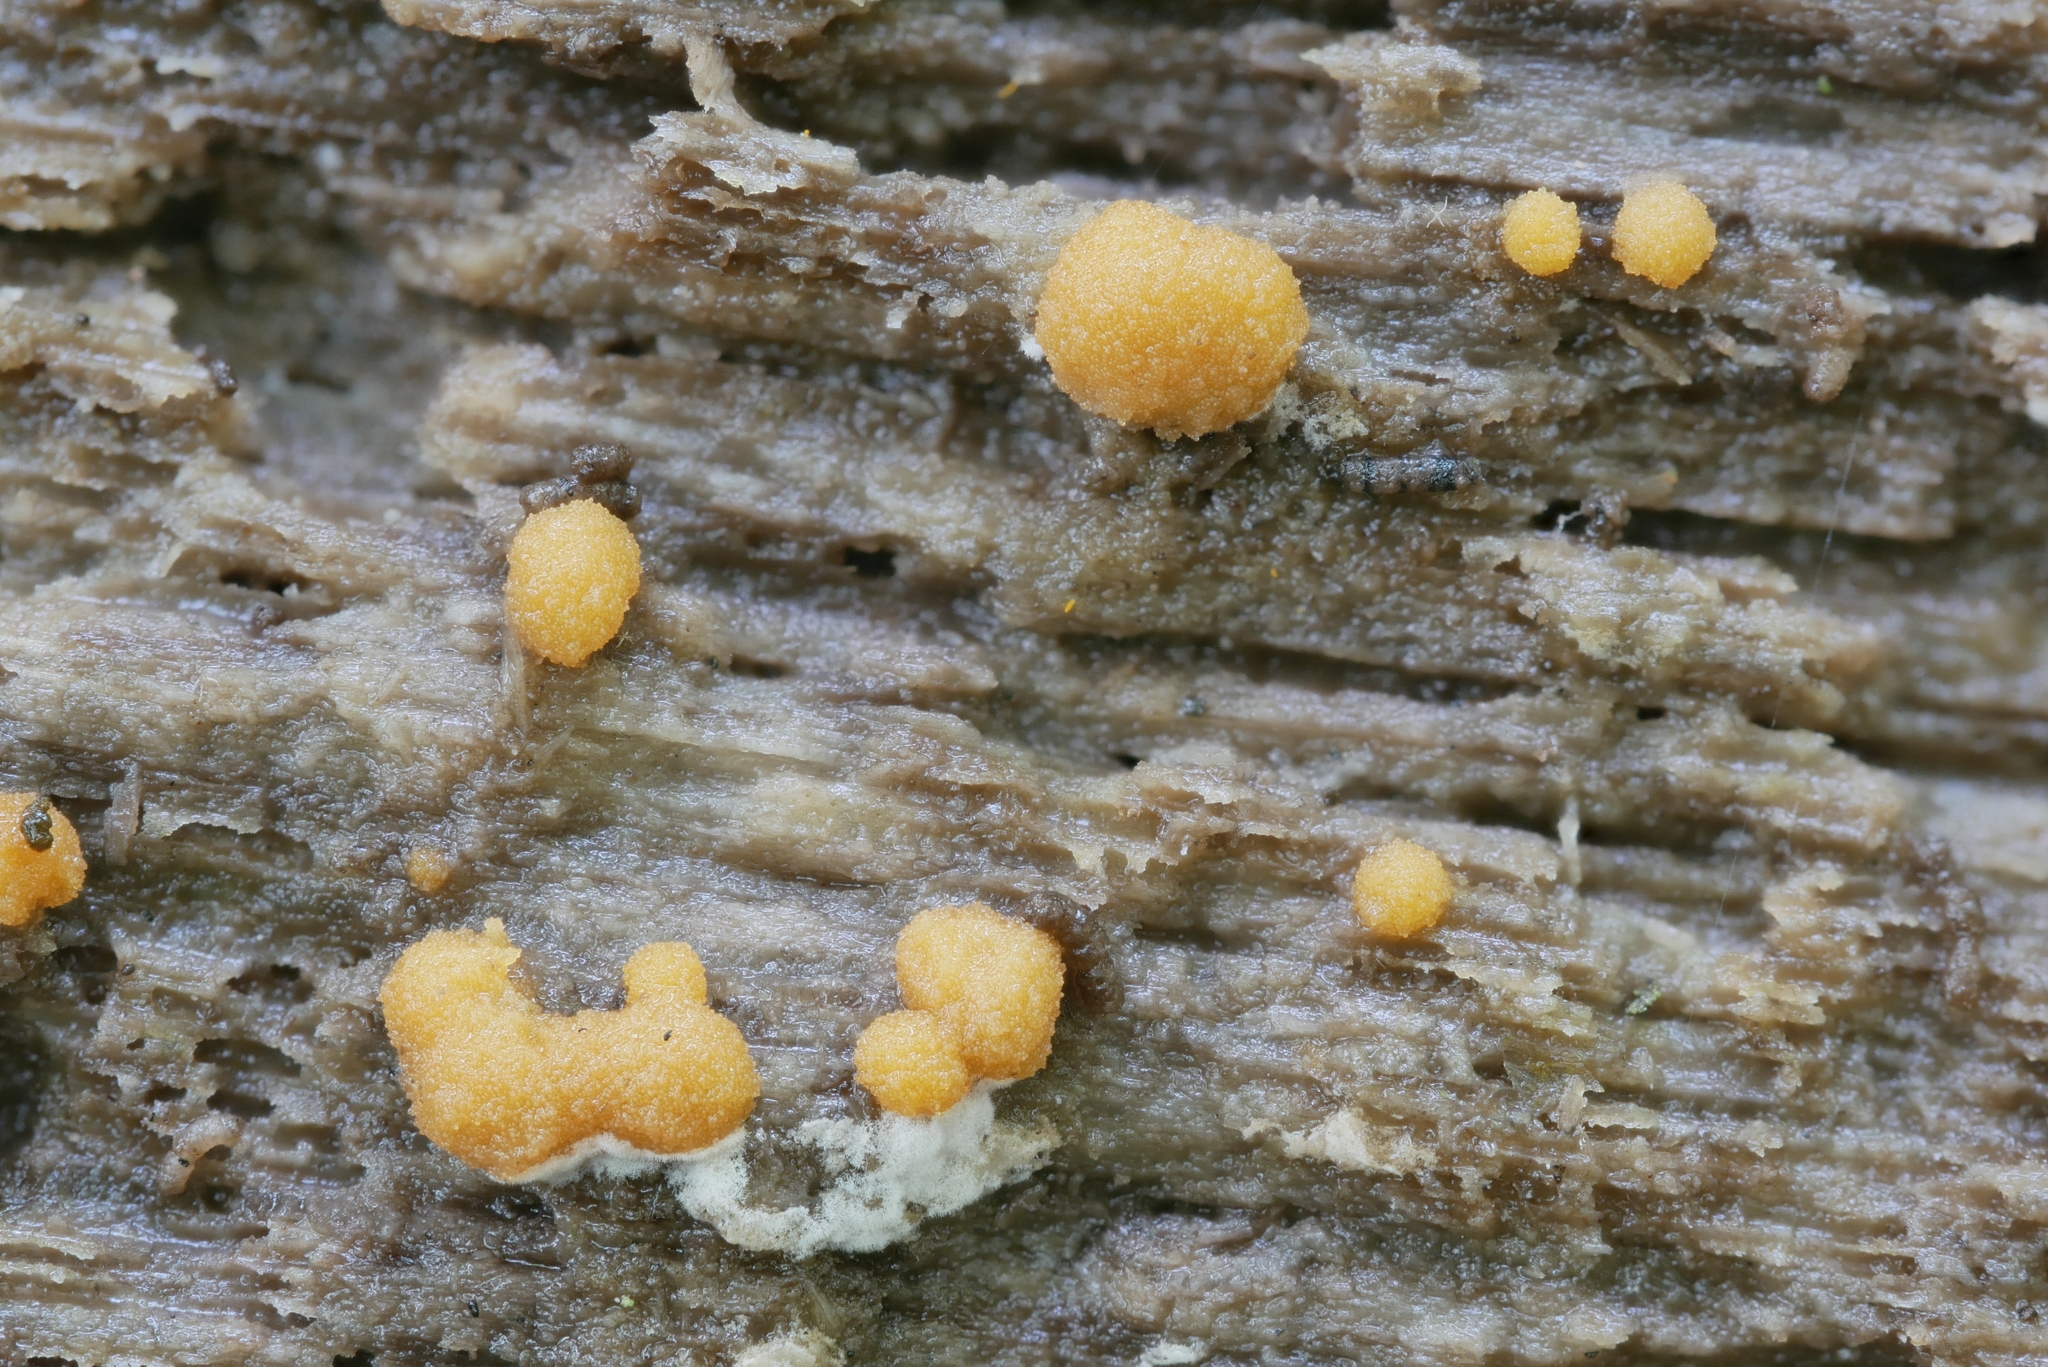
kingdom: Fungi
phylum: Ascomycota
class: Pezizomycetes
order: Pezizales
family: Pyronemataceae
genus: Sphaerosporium
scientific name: Sphaerosporium lignatile
